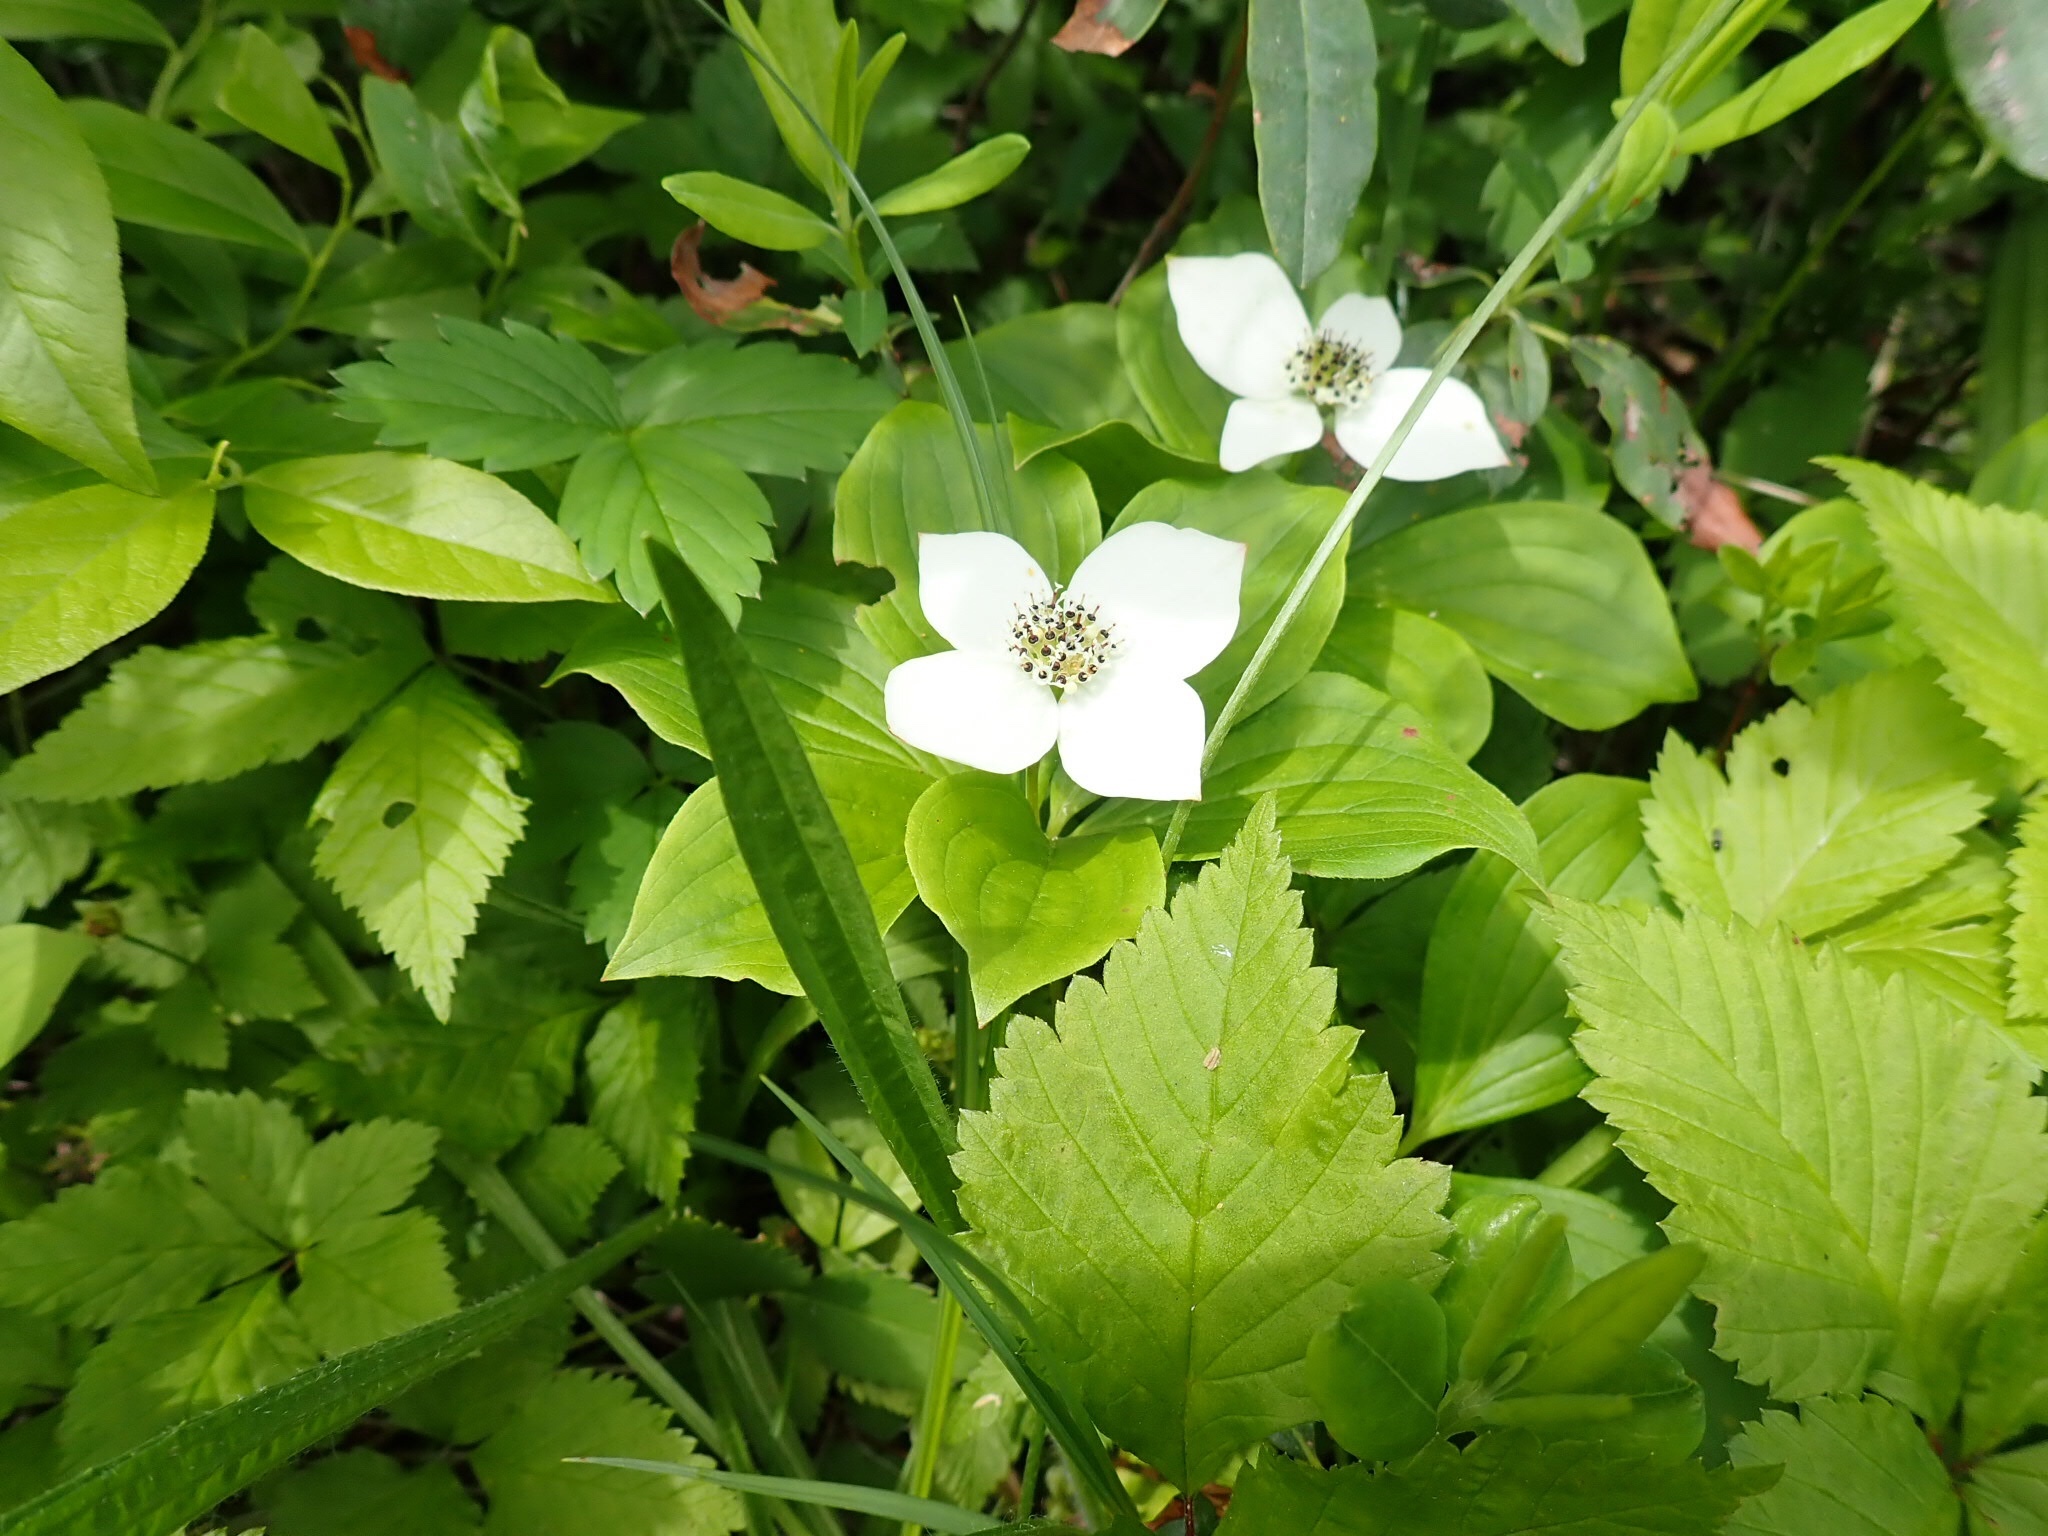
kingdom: Plantae
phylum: Tracheophyta
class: Magnoliopsida
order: Cornales
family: Cornaceae
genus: Cornus
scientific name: Cornus canadensis
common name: Creeping dogwood
